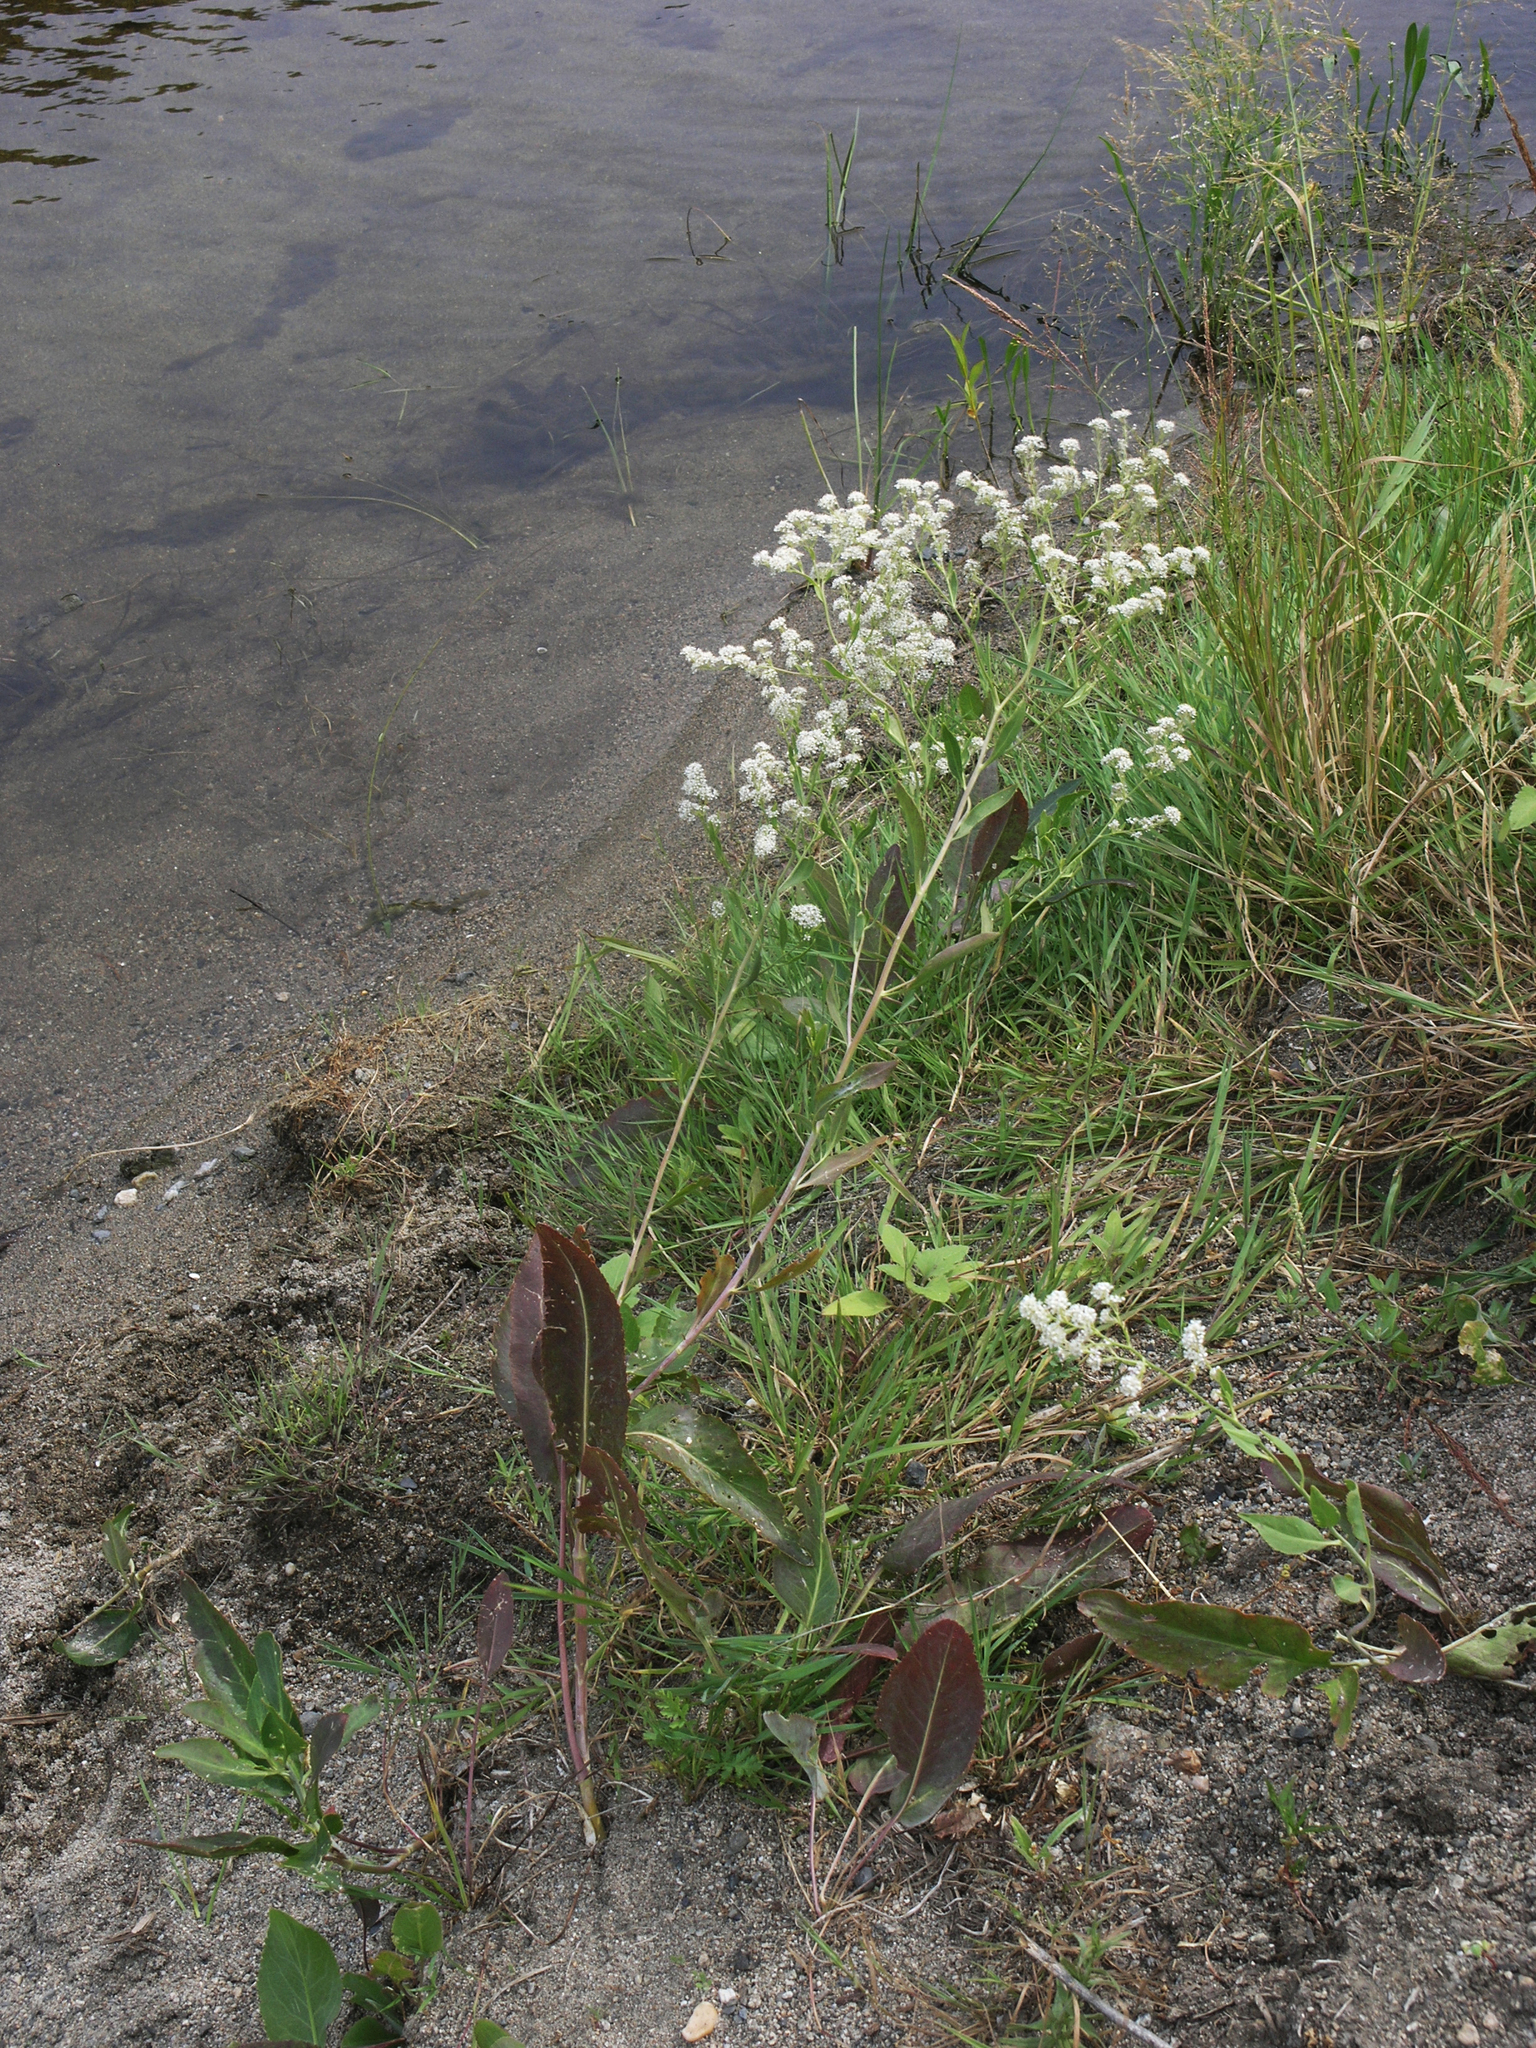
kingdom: Plantae
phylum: Tracheophyta
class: Magnoliopsida
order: Brassicales
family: Brassicaceae
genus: Lepidium
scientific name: Lepidium latifolium
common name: Dittander
